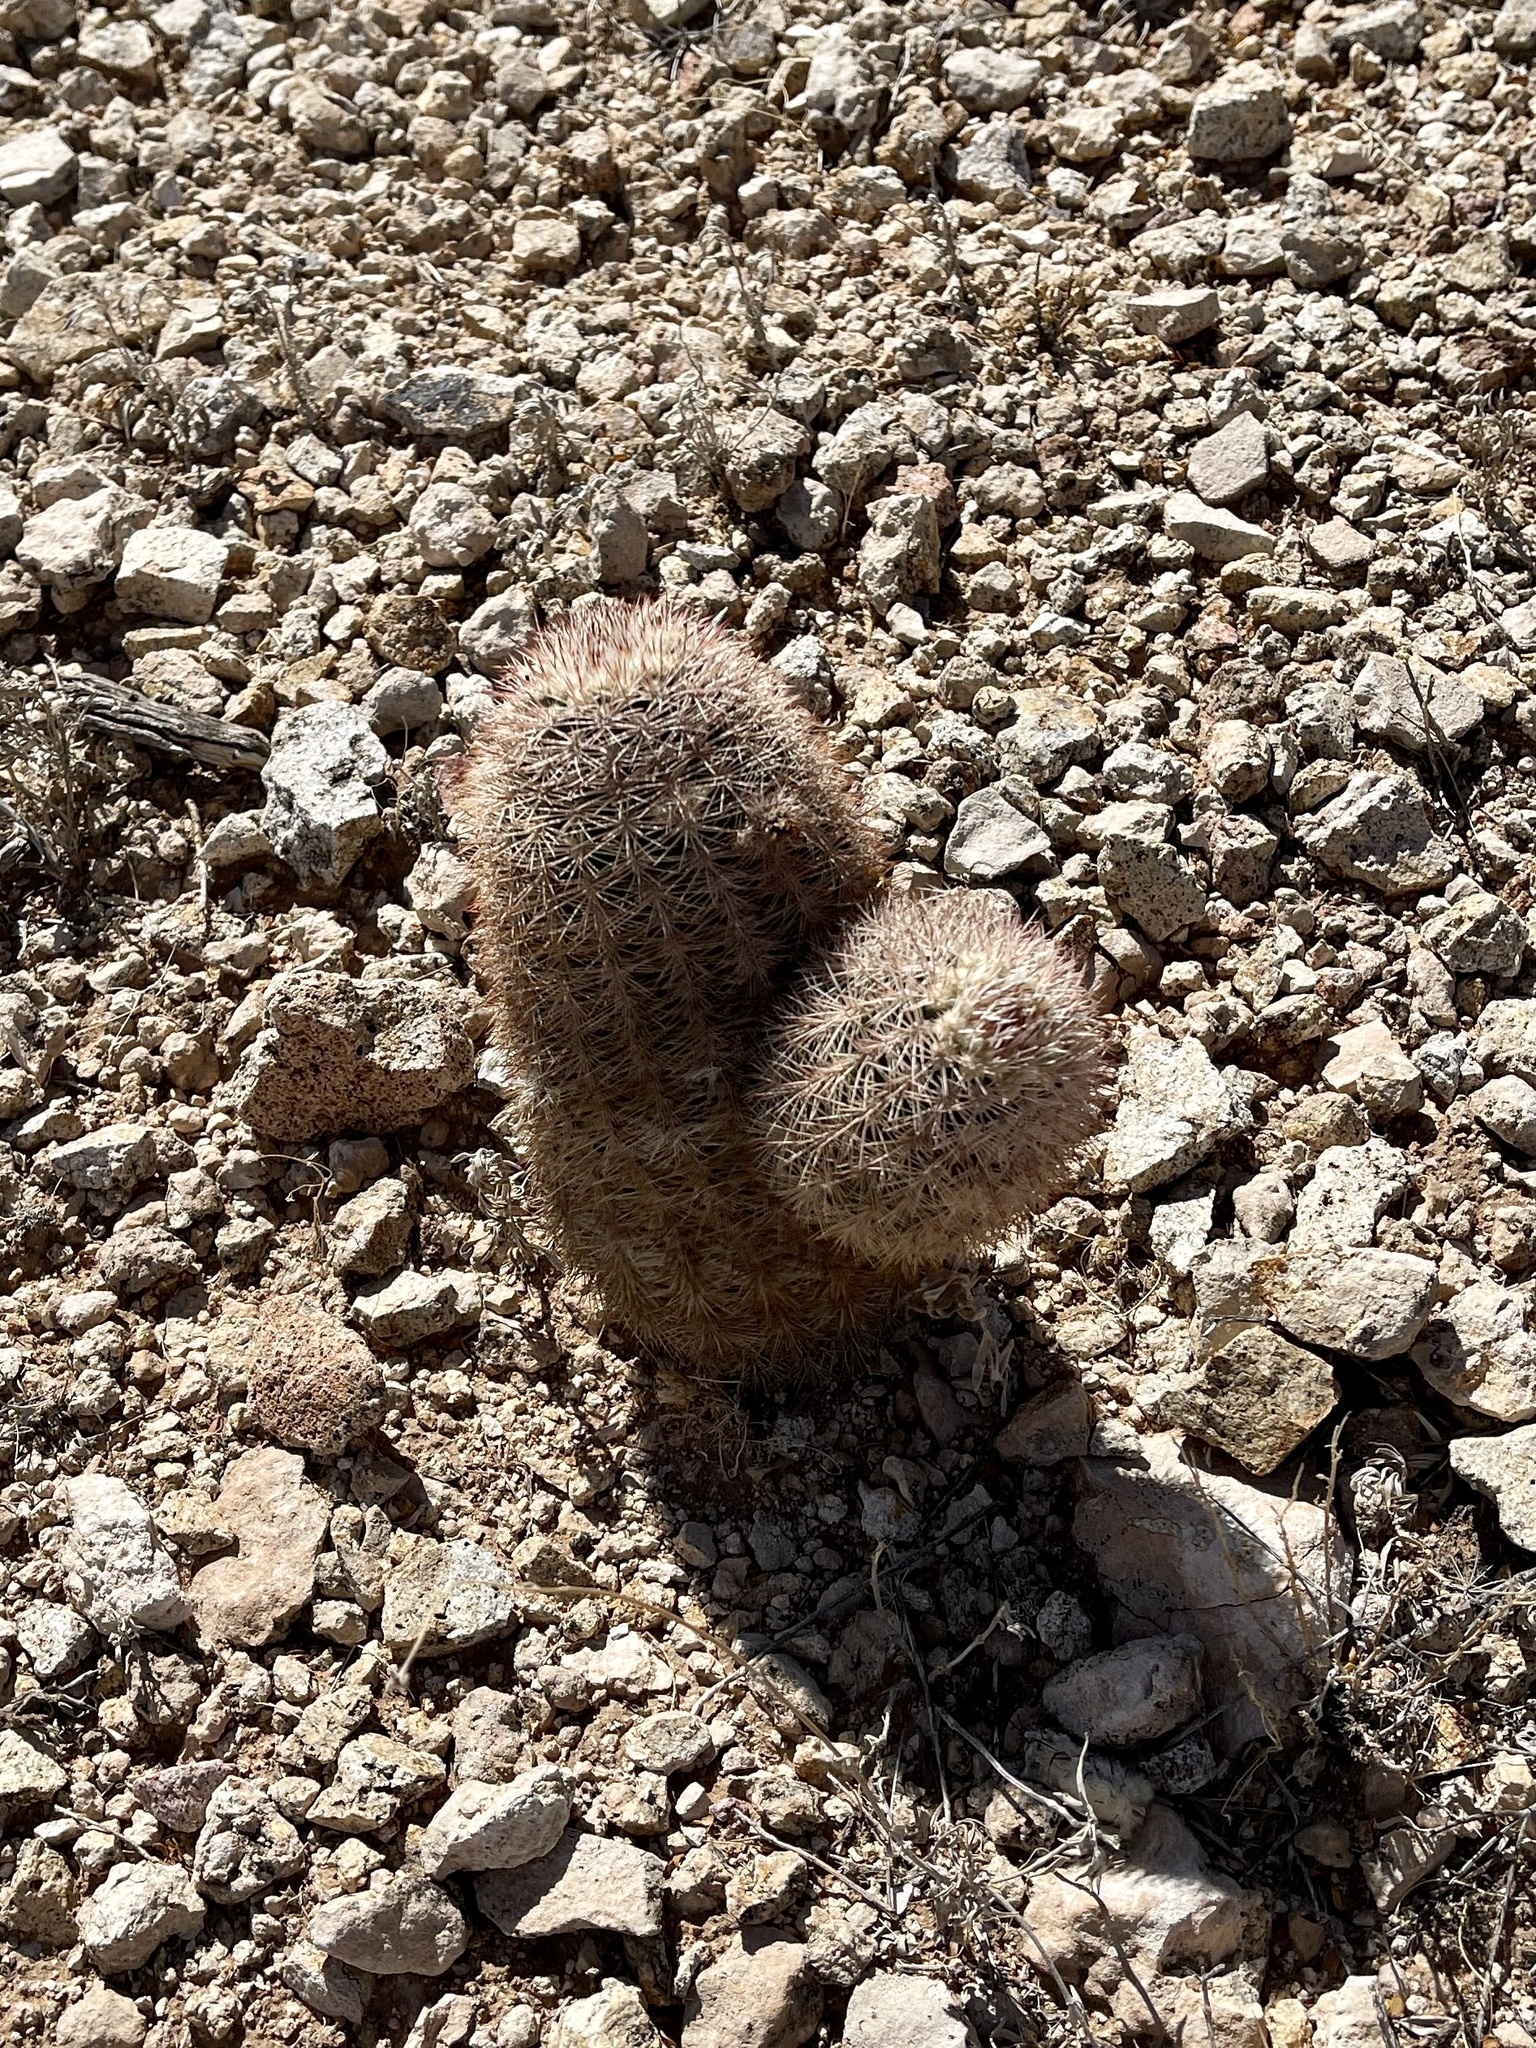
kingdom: Plantae
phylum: Tracheophyta
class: Magnoliopsida
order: Caryophyllales
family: Cactaceae
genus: Echinocereus
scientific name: Echinocereus dasyacanthus
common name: Spiny hedgehog cactus
